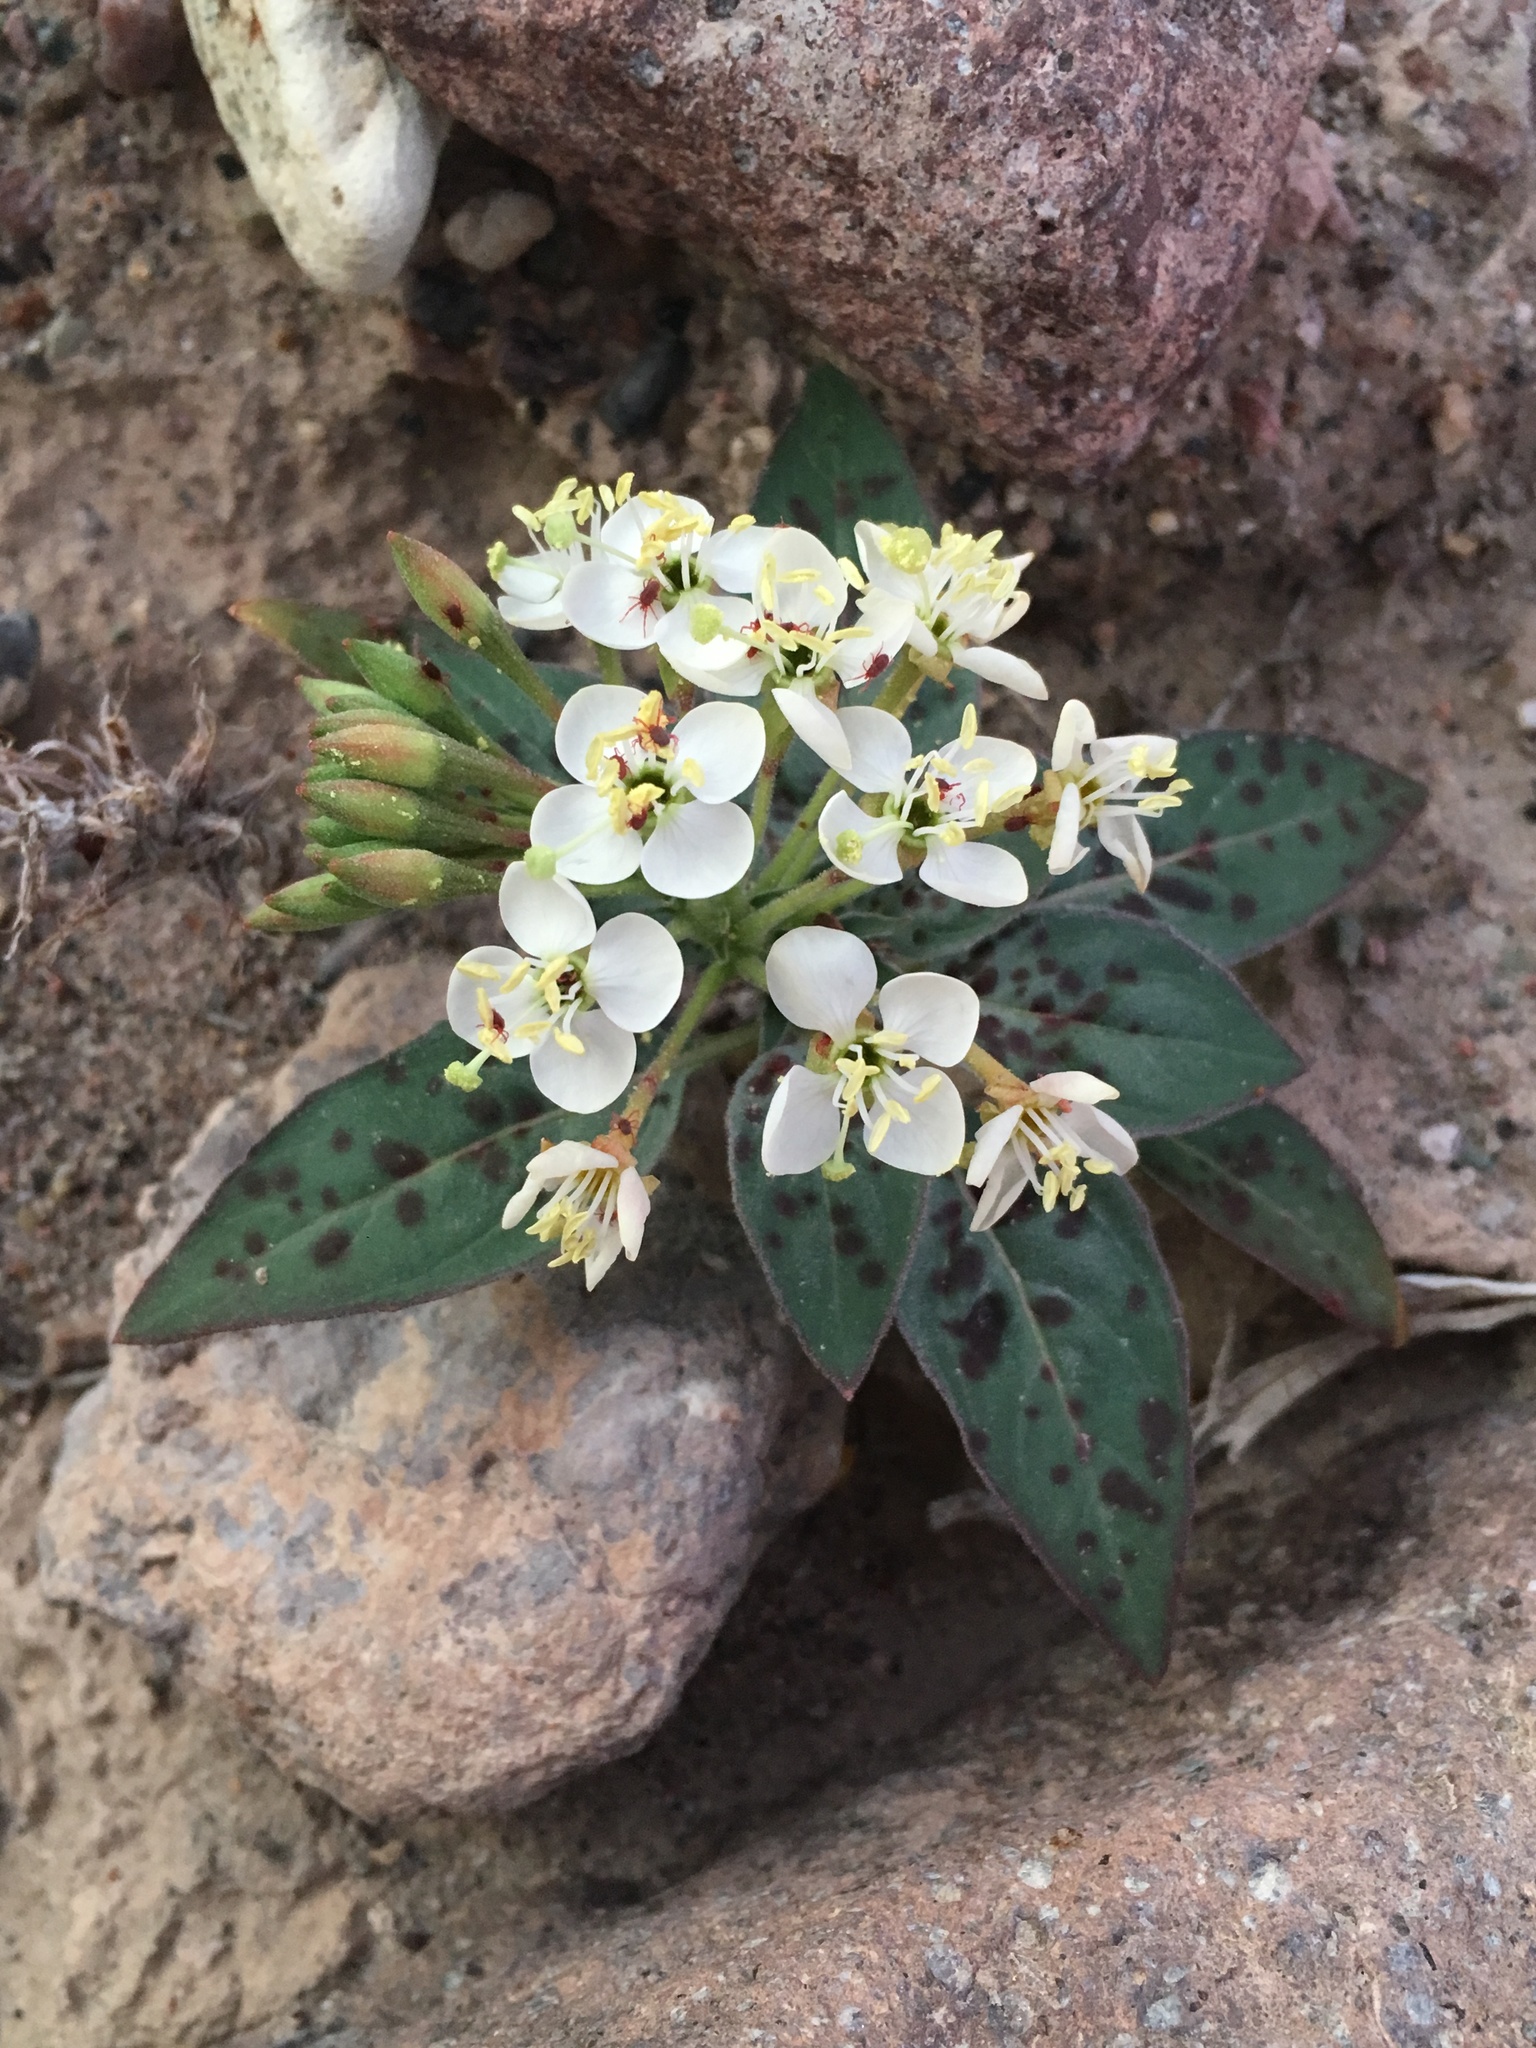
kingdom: Plantae
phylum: Tracheophyta
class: Magnoliopsida
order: Myrtales
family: Onagraceae
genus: Eremothera
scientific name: Eremothera boothii
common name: Booth's evening primrose
